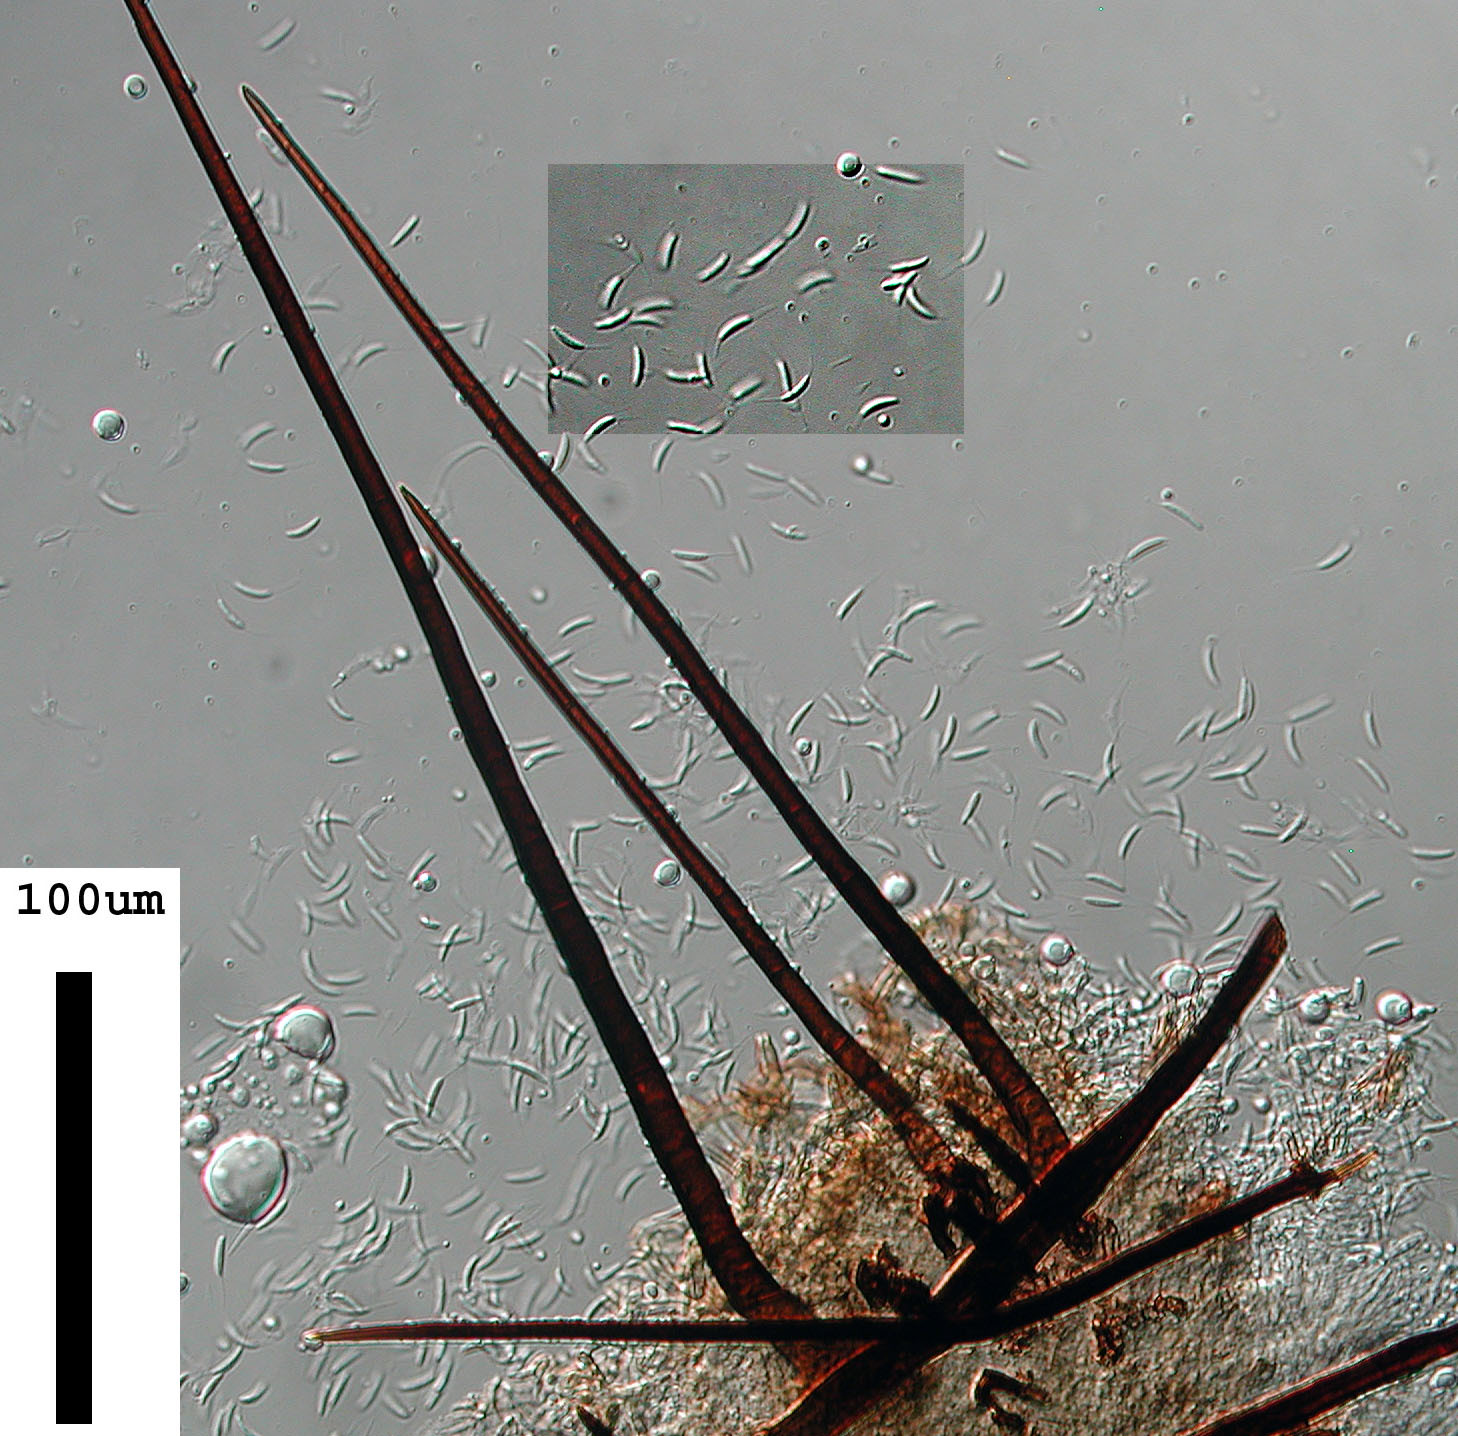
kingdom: Fungi
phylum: Ascomycota
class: Sordariomycetes
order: Phomatosporales
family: Phomatosporaceae
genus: Phomatospora
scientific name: Phomatospora dinemasporium
